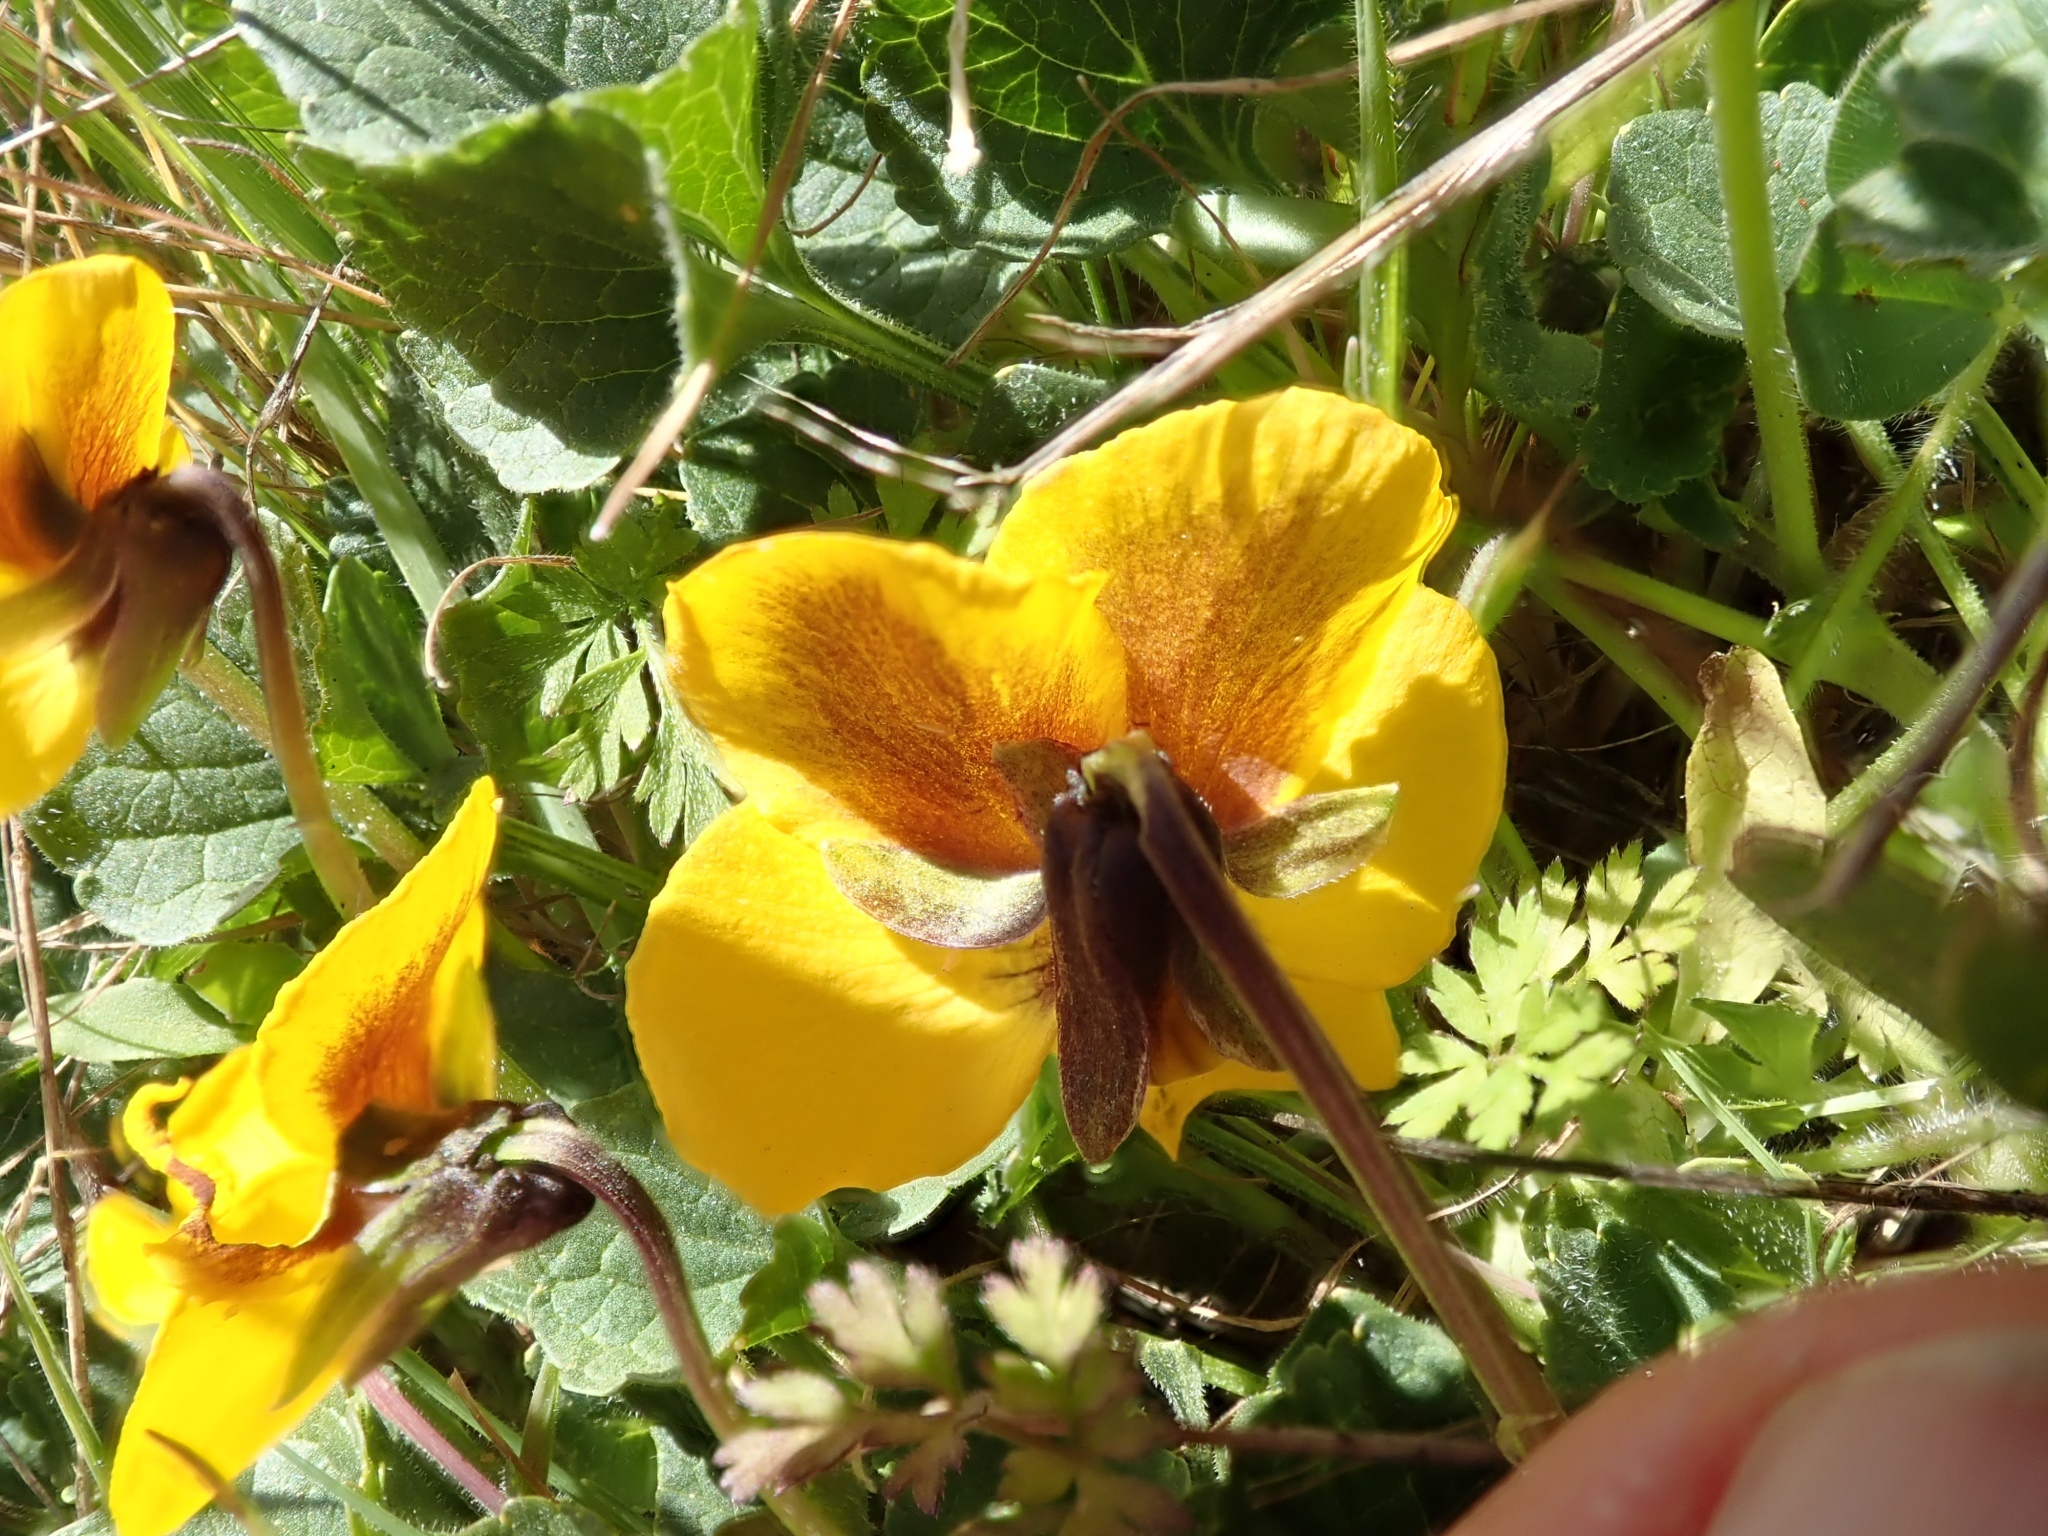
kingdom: Plantae
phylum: Tracheophyta
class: Magnoliopsida
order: Malpighiales
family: Violaceae
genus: Viola
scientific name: Viola pedunculata
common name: California golden violet
